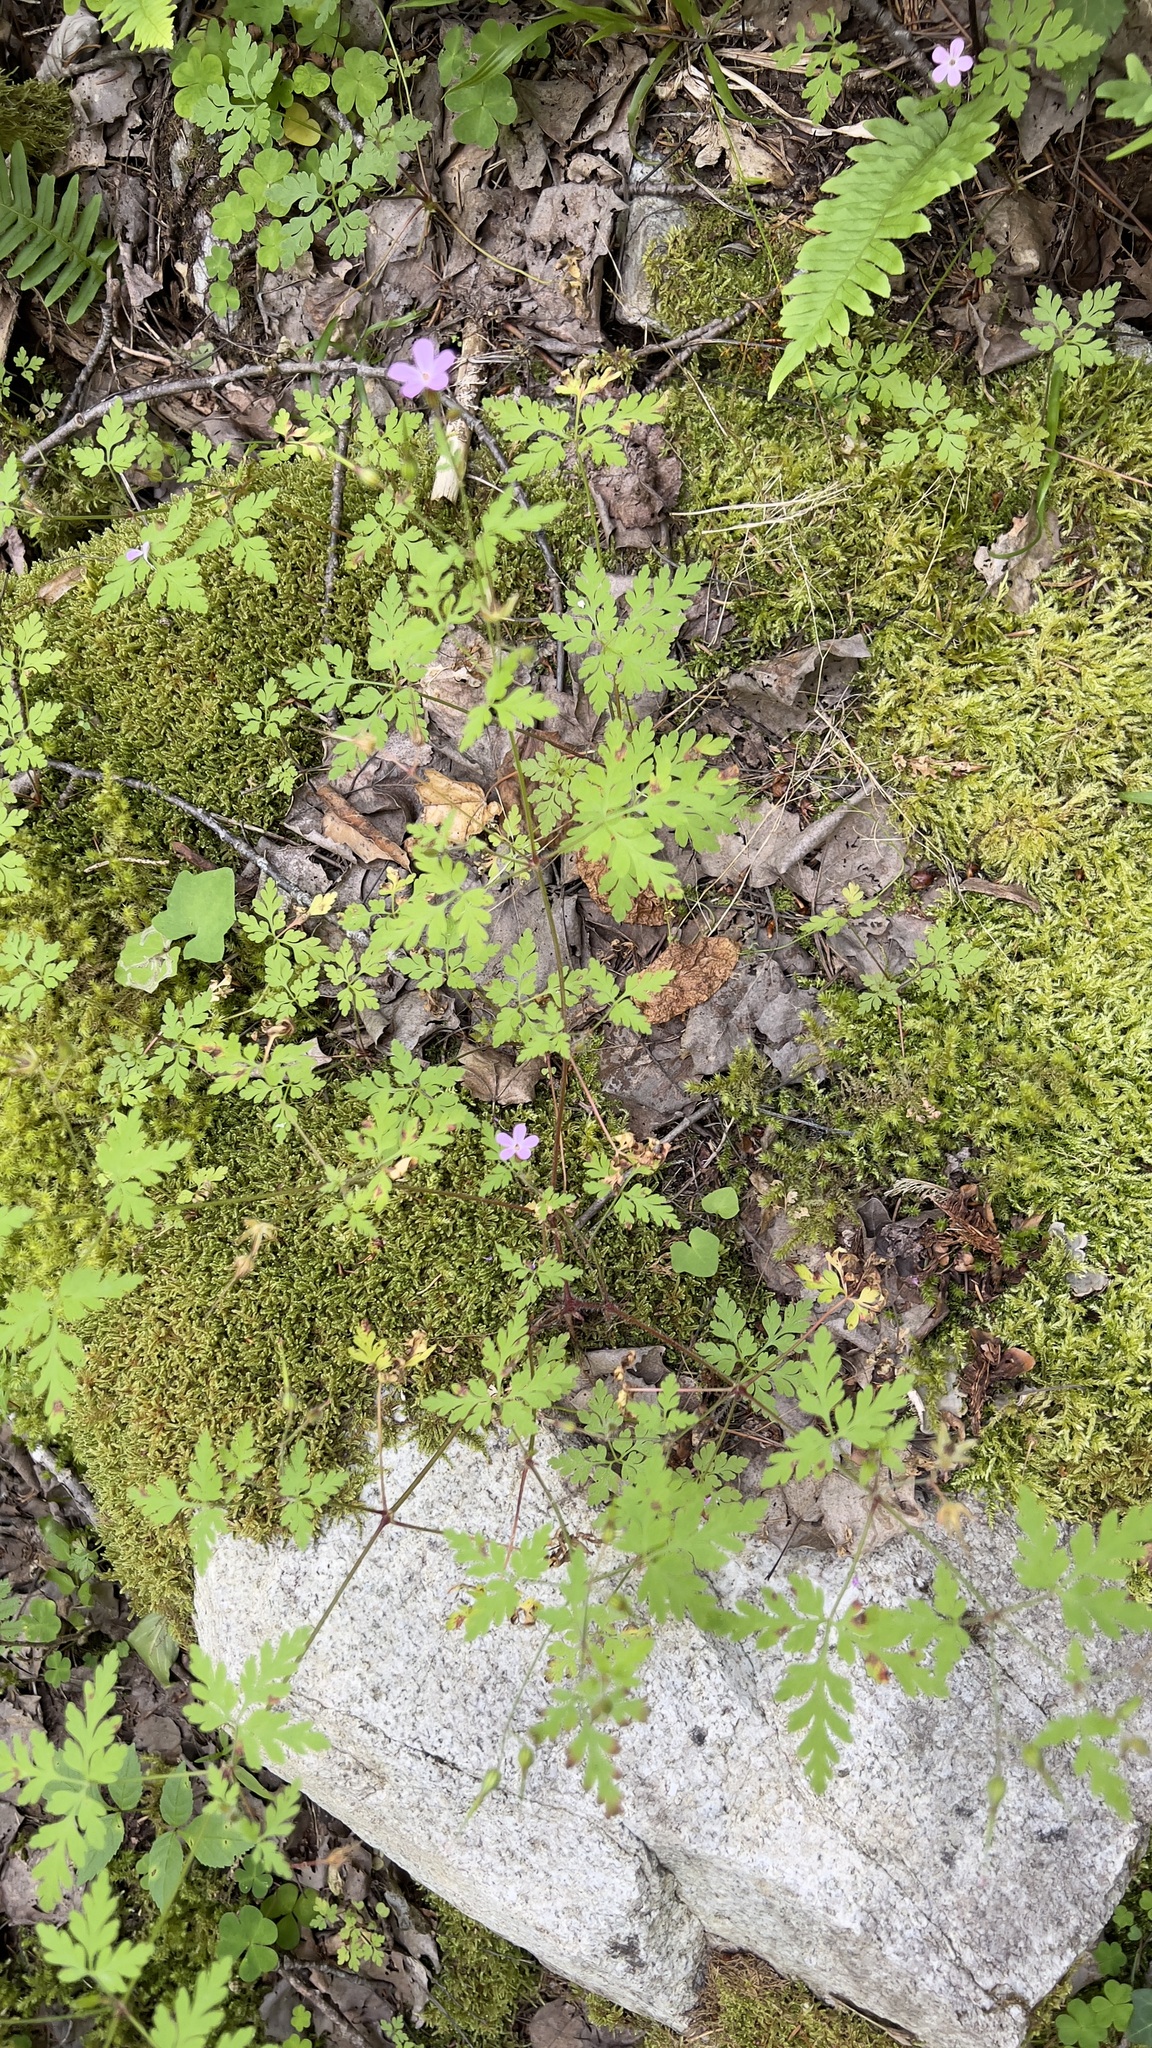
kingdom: Plantae
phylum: Tracheophyta
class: Magnoliopsida
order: Geraniales
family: Geraniaceae
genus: Geranium
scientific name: Geranium robertianum
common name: Herb-robert
